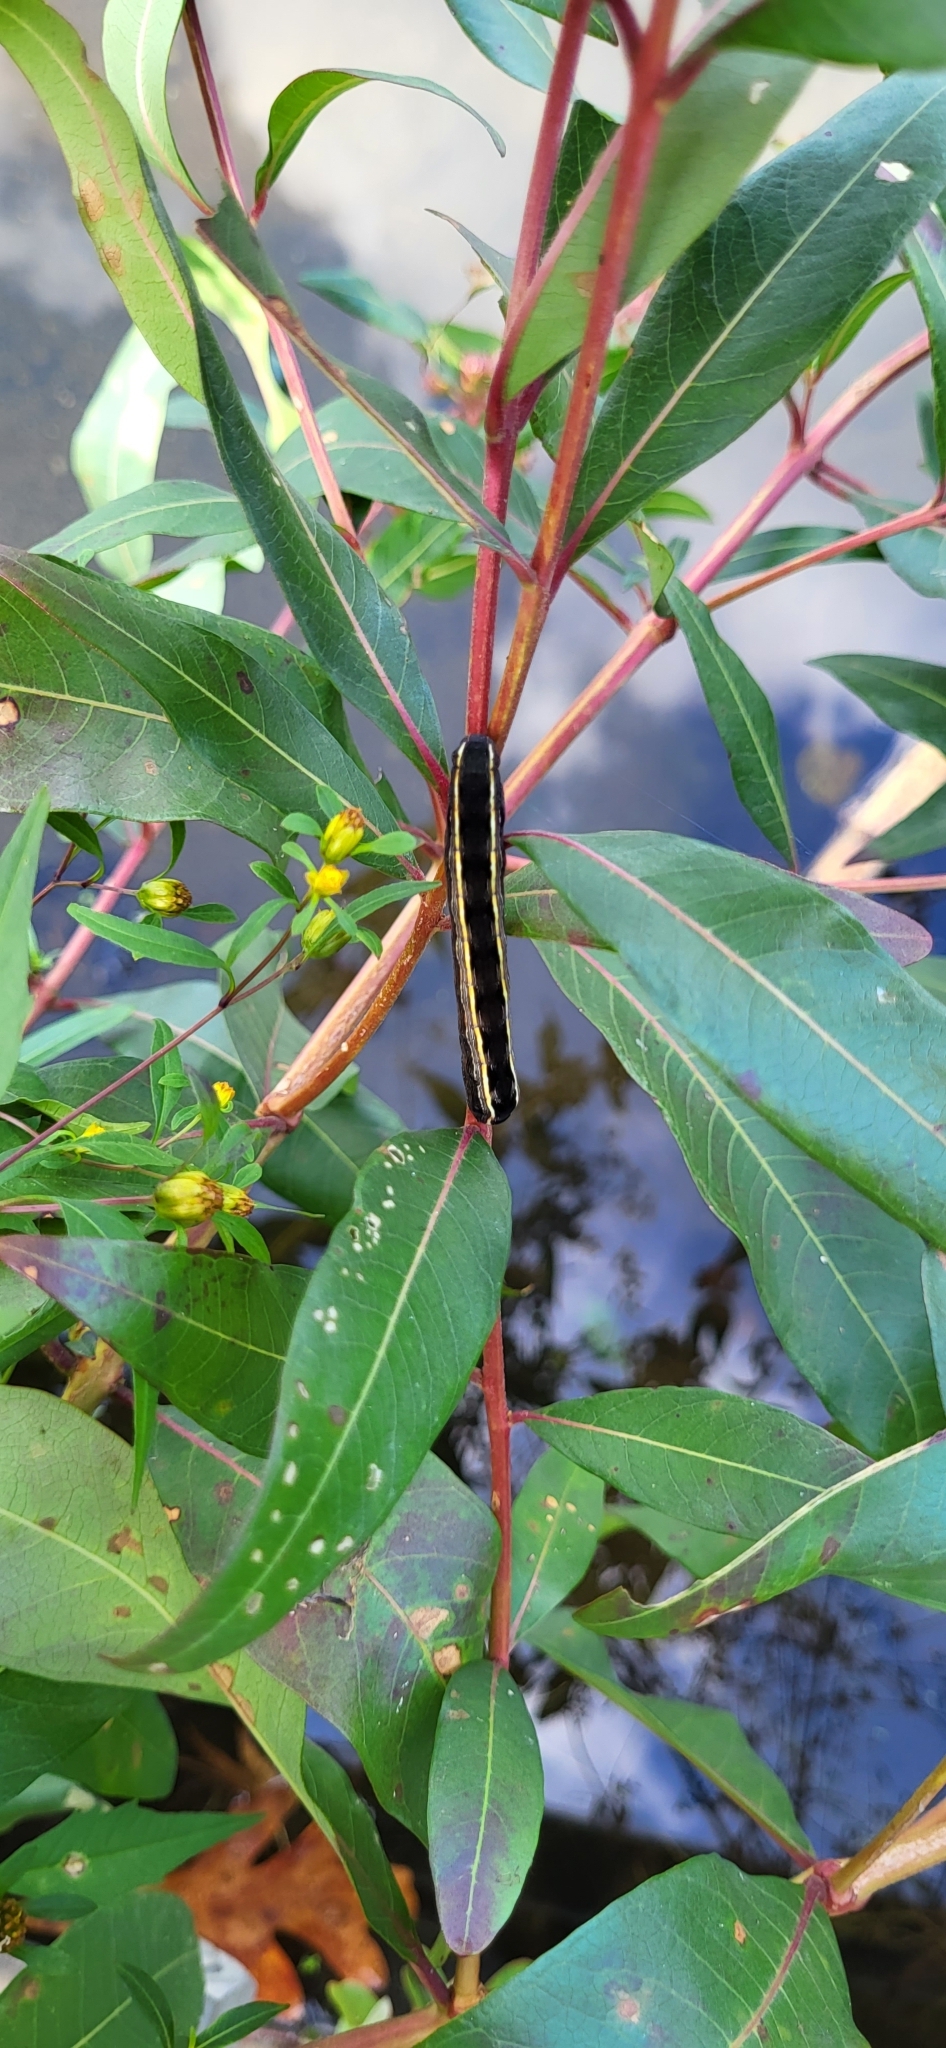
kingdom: Animalia
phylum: Arthropoda
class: Insecta
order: Lepidoptera
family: Noctuidae
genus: Spodoptera
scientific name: Spodoptera ornithogalli
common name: Yellow-striped armyworm
